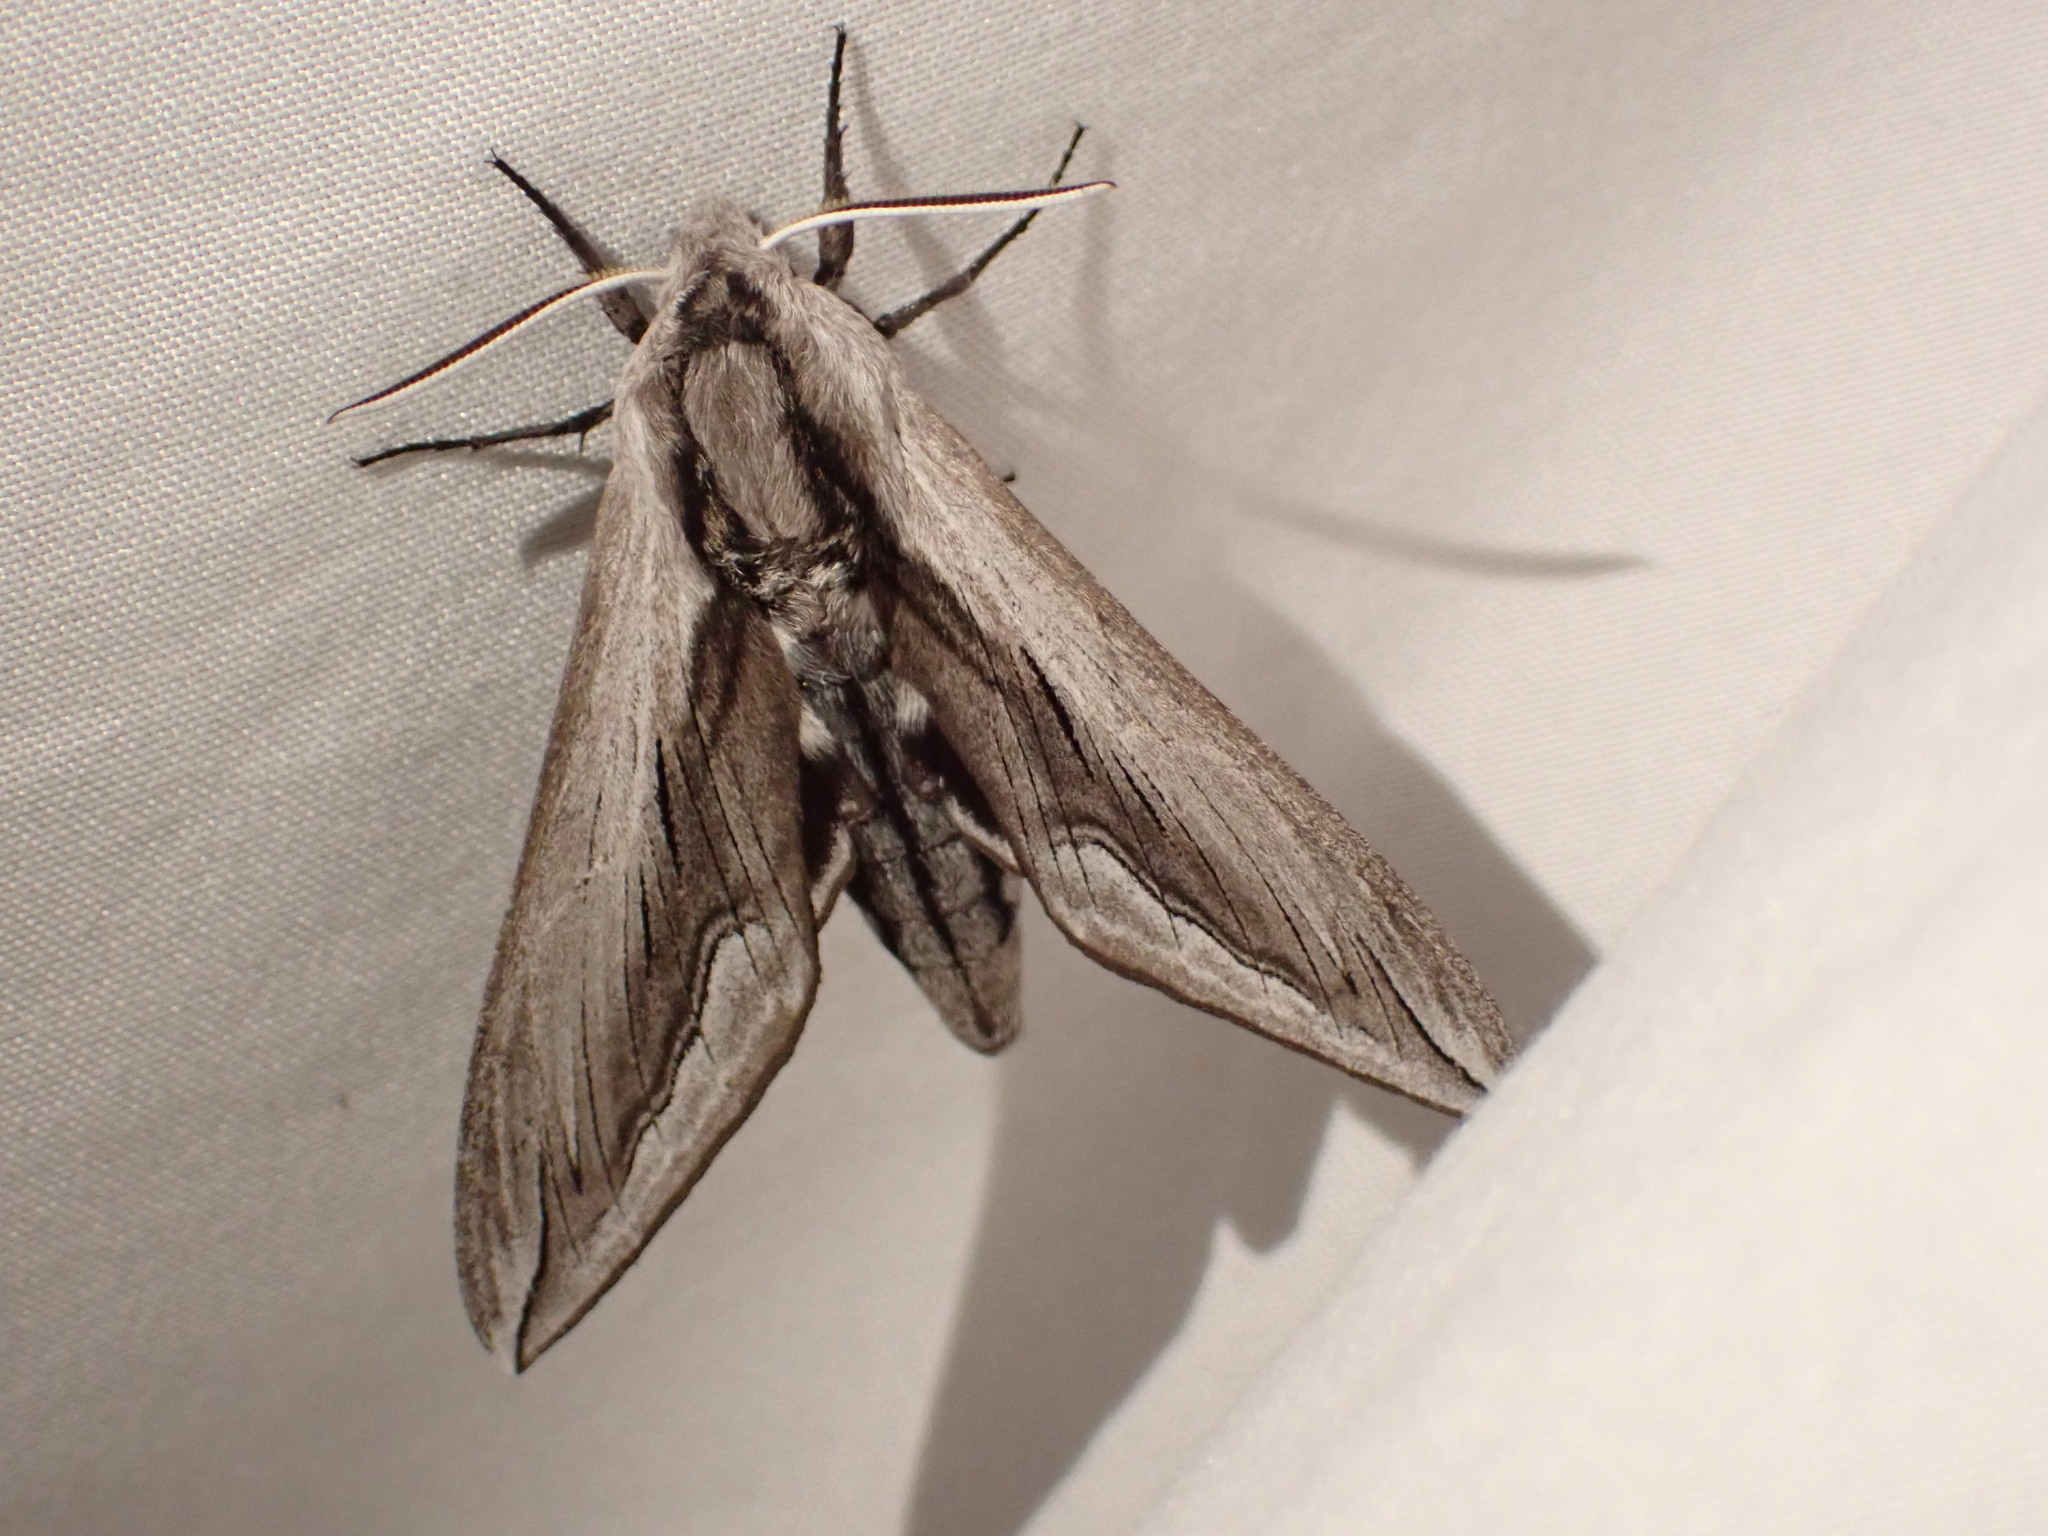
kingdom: Animalia
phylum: Arthropoda
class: Insecta
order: Lepidoptera
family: Sphingidae
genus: Sphinx
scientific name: Sphinx vashti
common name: Snowberry sphinx
